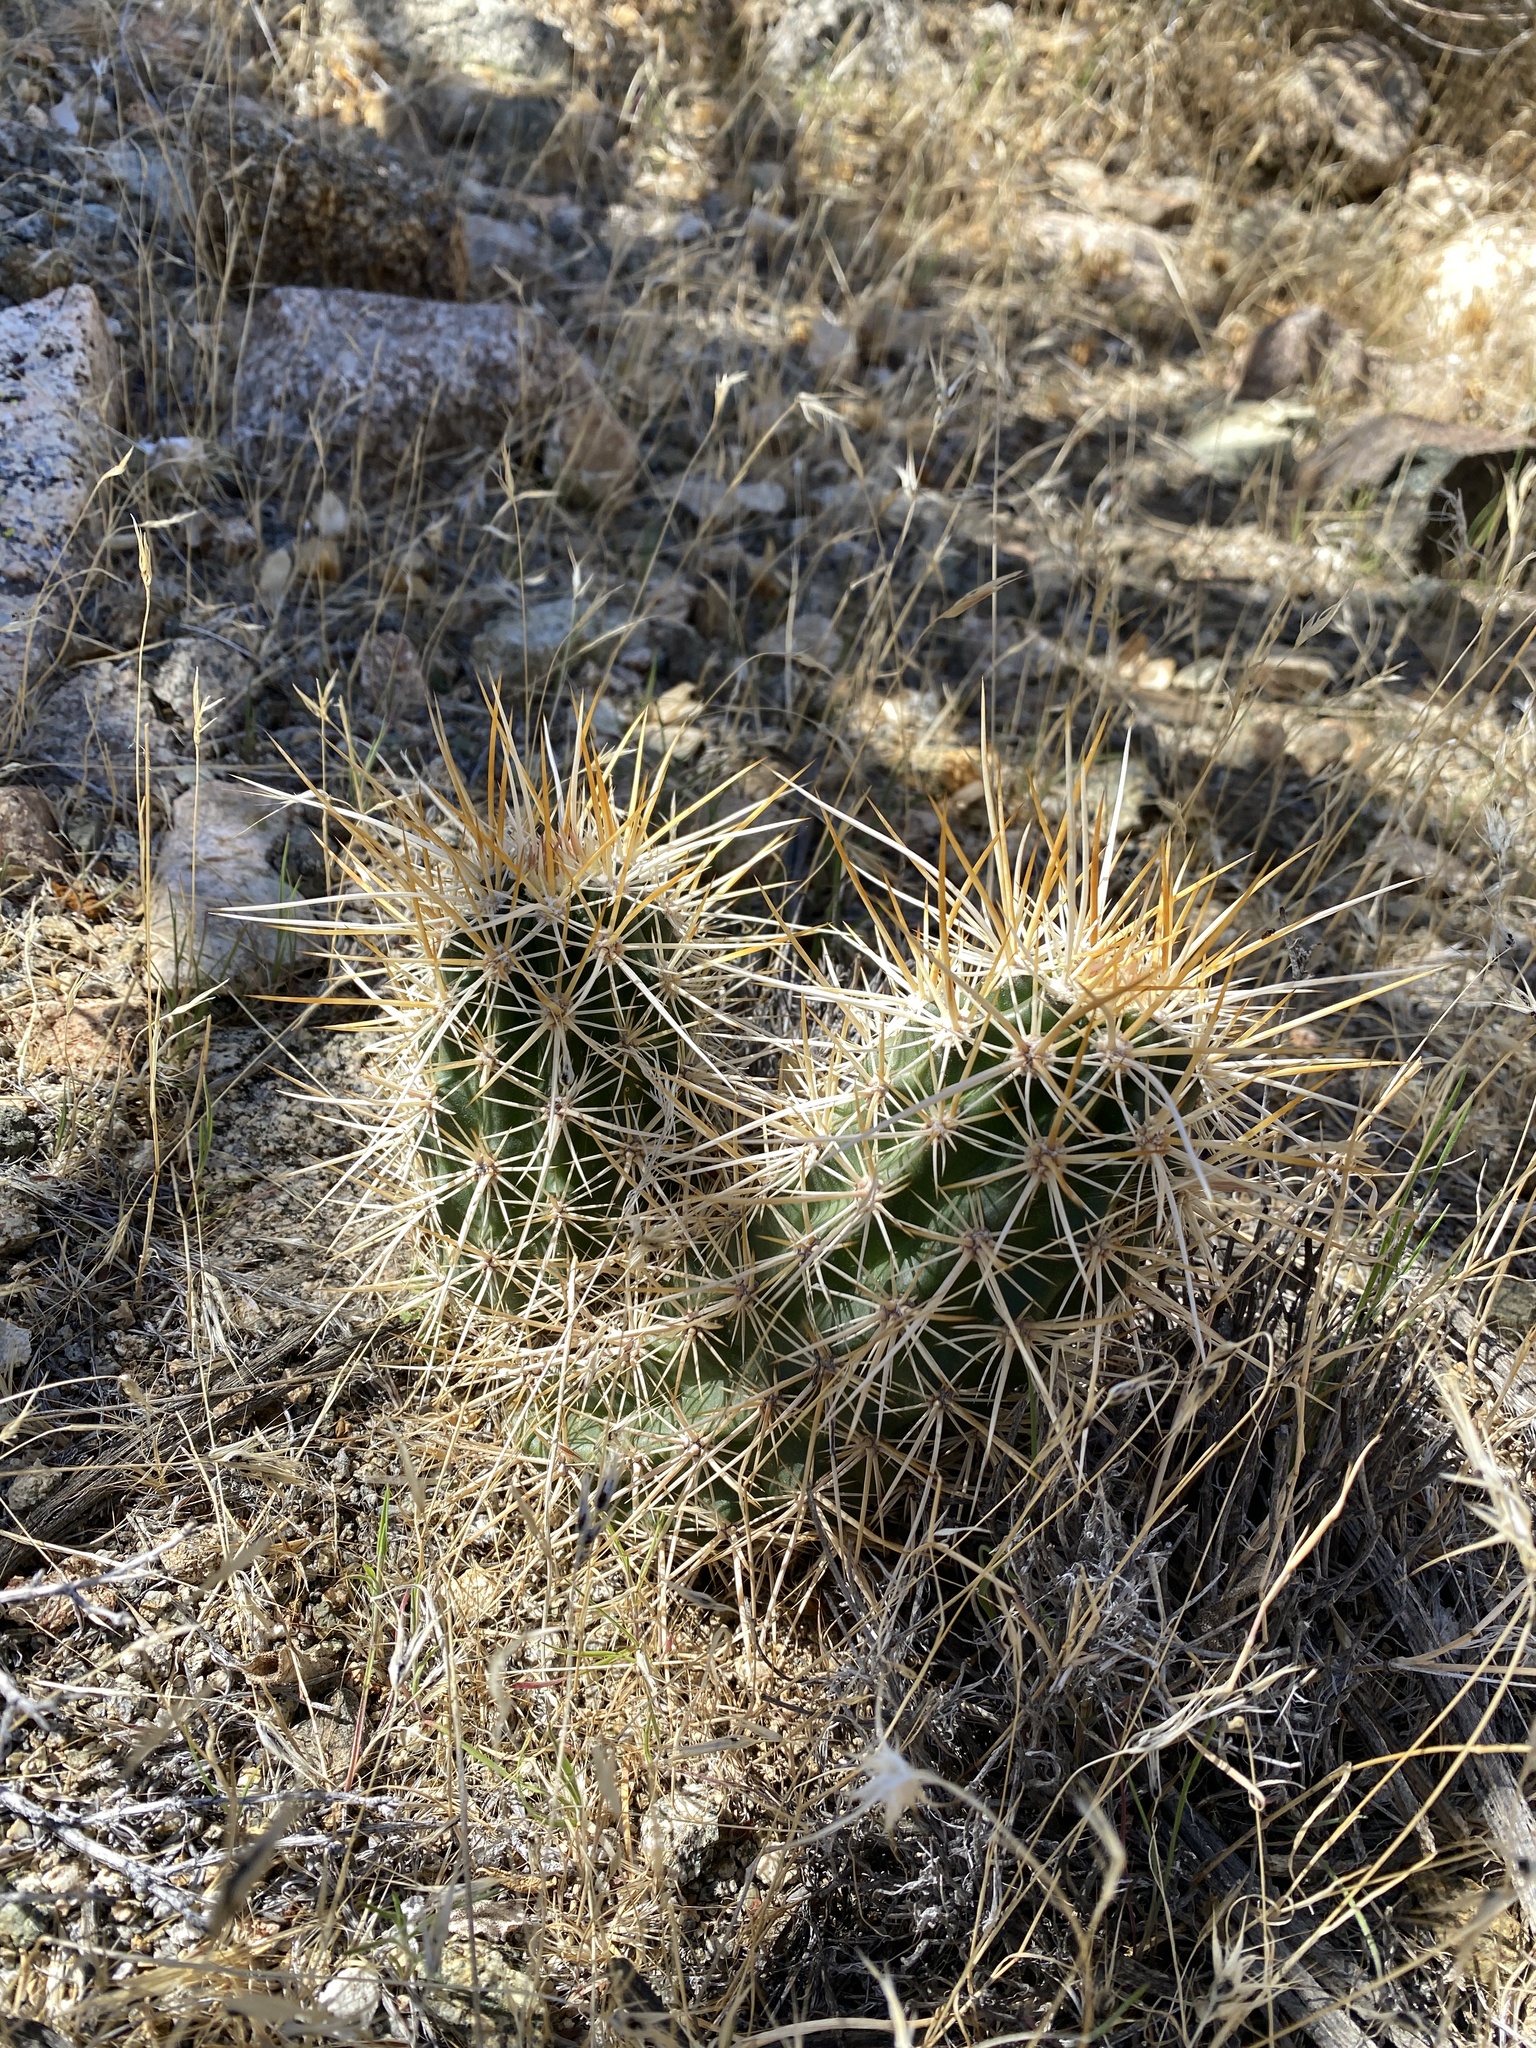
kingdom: Plantae
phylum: Tracheophyta
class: Magnoliopsida
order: Caryophyllales
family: Cactaceae
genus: Echinocereus
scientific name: Echinocereus engelmannii
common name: Engelmann's hedgehog cactus
